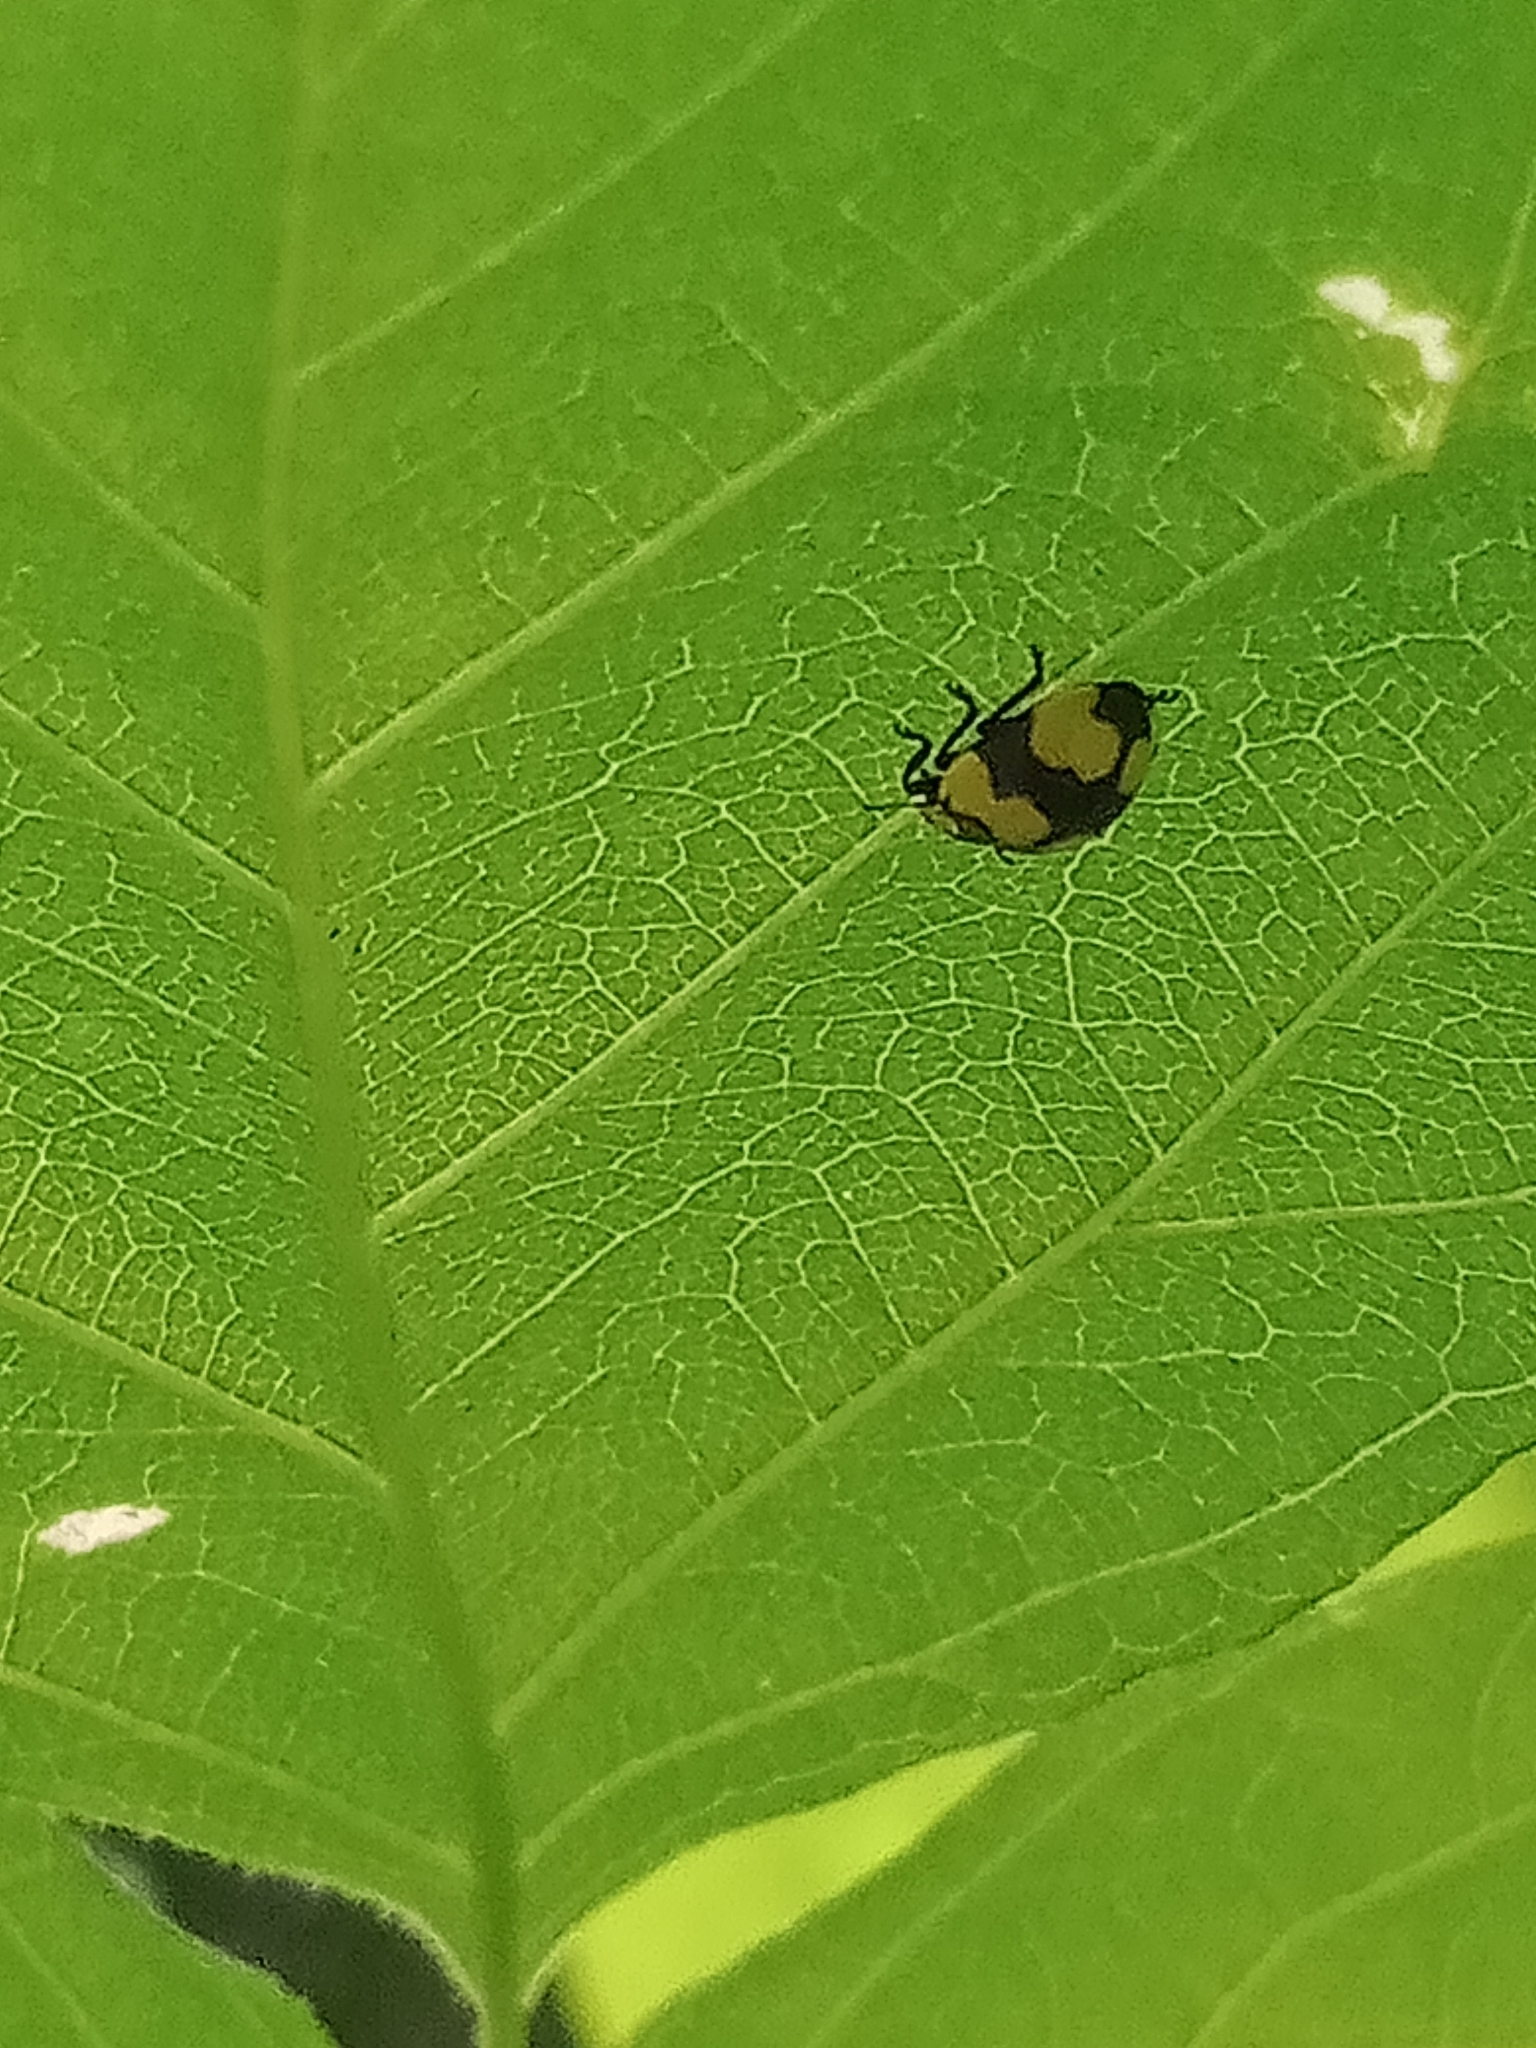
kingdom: Animalia
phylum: Arthropoda
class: Insecta
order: Coleoptera
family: Coccinellidae
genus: Illeis
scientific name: Illeis galbula
